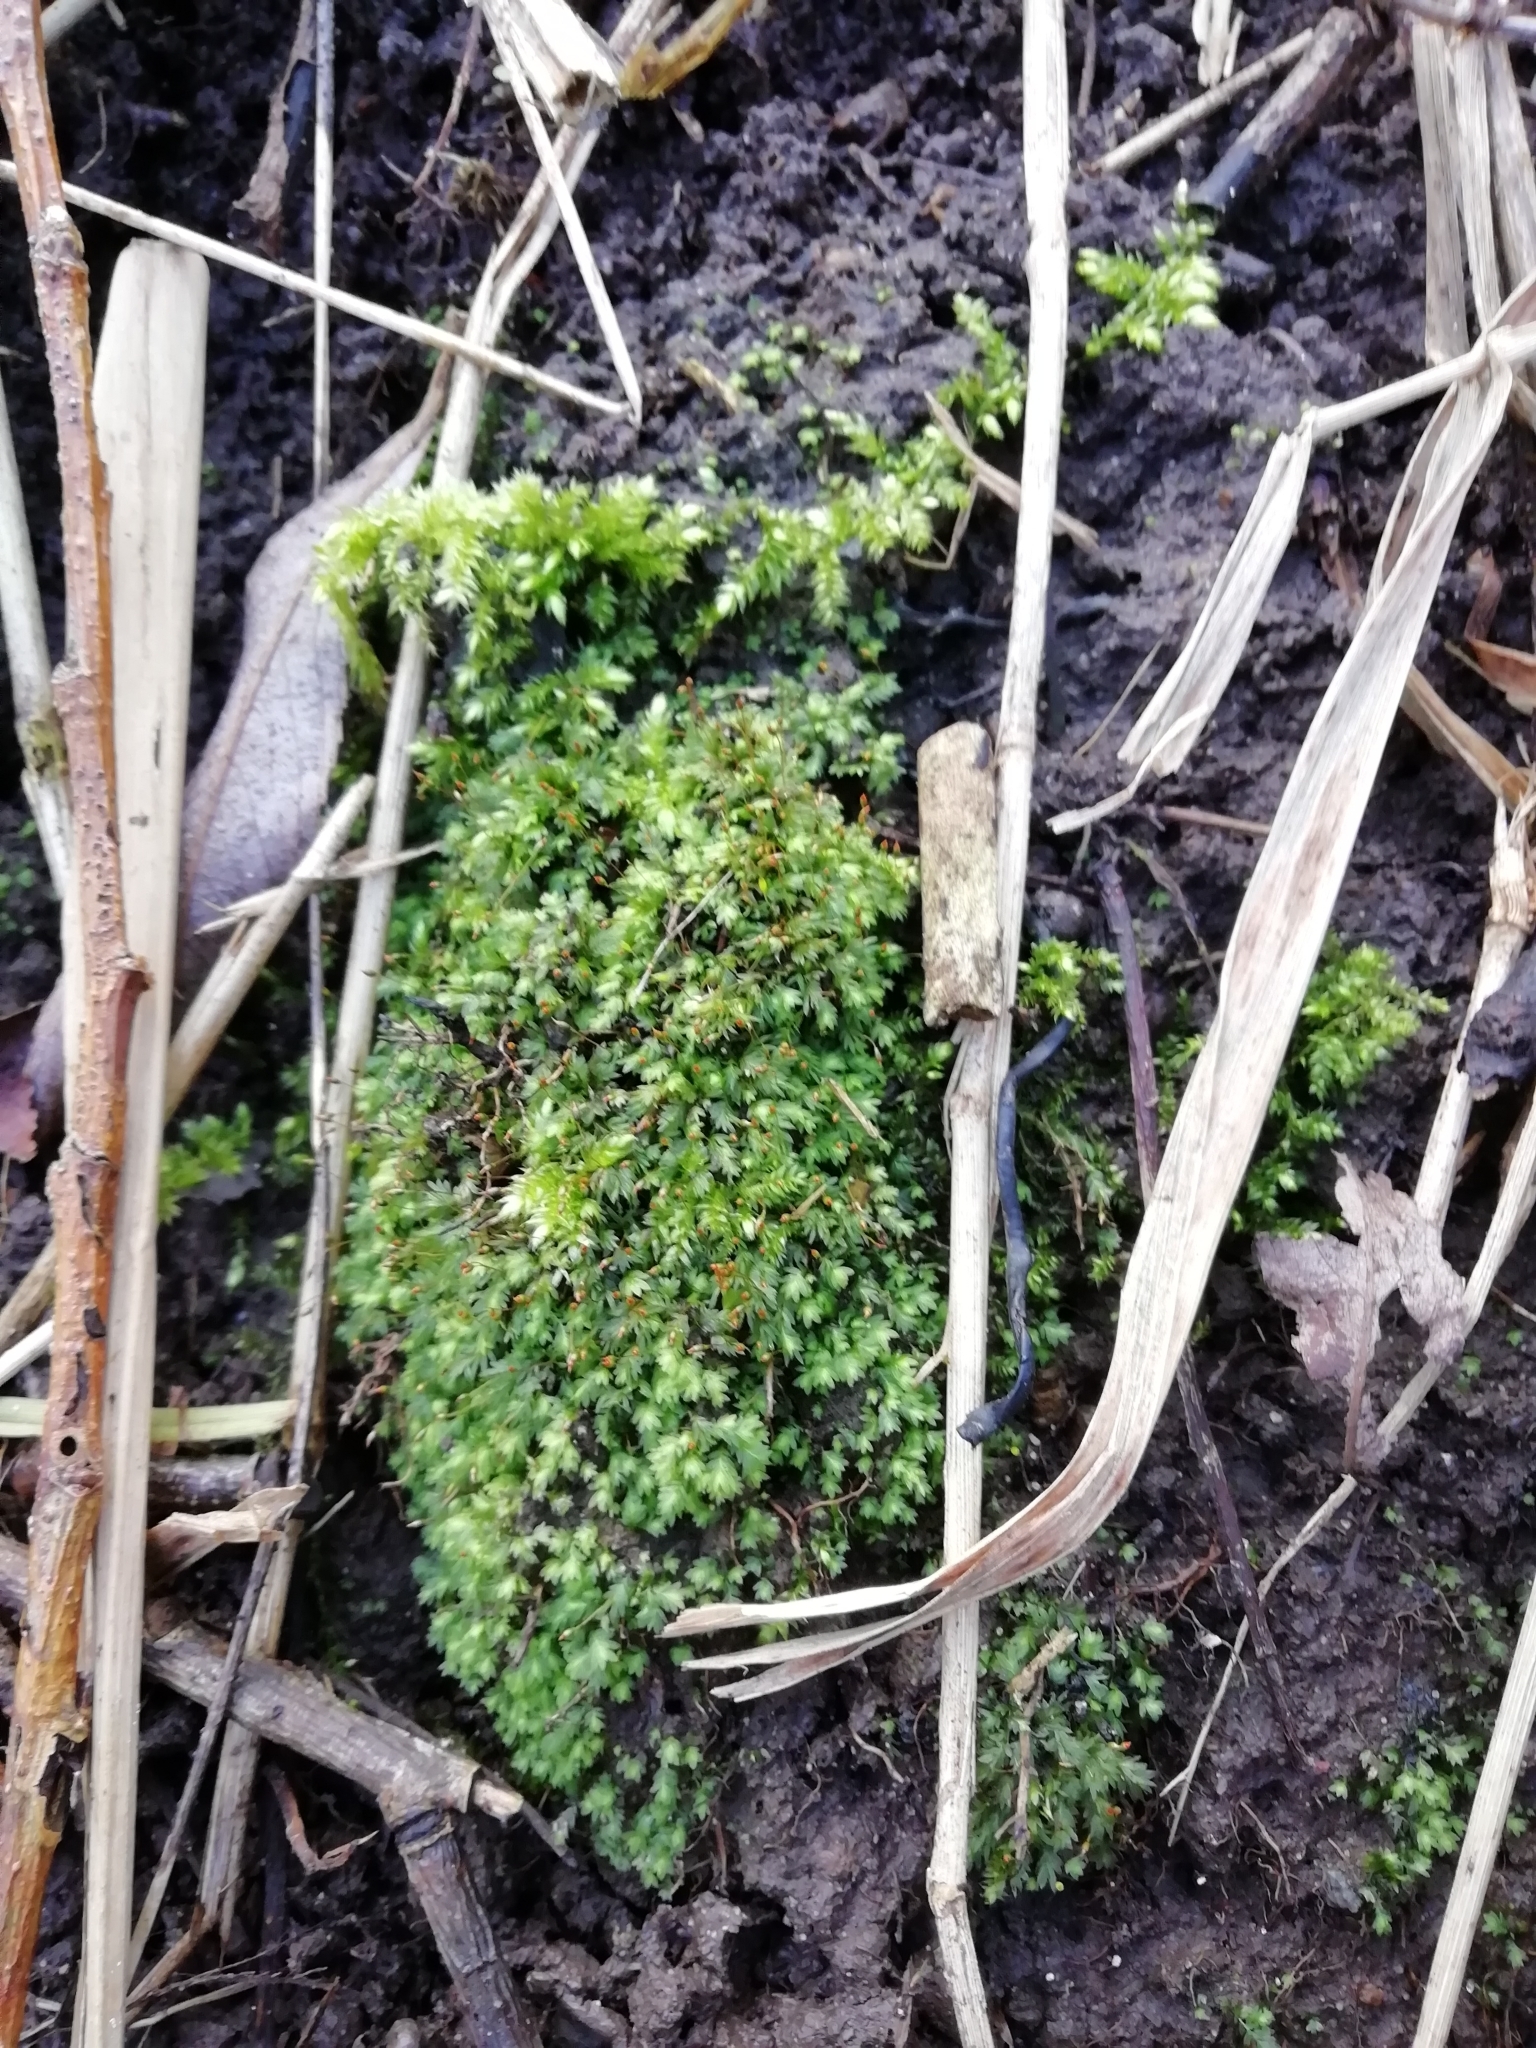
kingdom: Plantae
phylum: Bryophyta
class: Bryopsida
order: Dicranales
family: Fissidentaceae
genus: Fissidens
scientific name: Fissidens bryoides
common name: Lesser pocket moss
